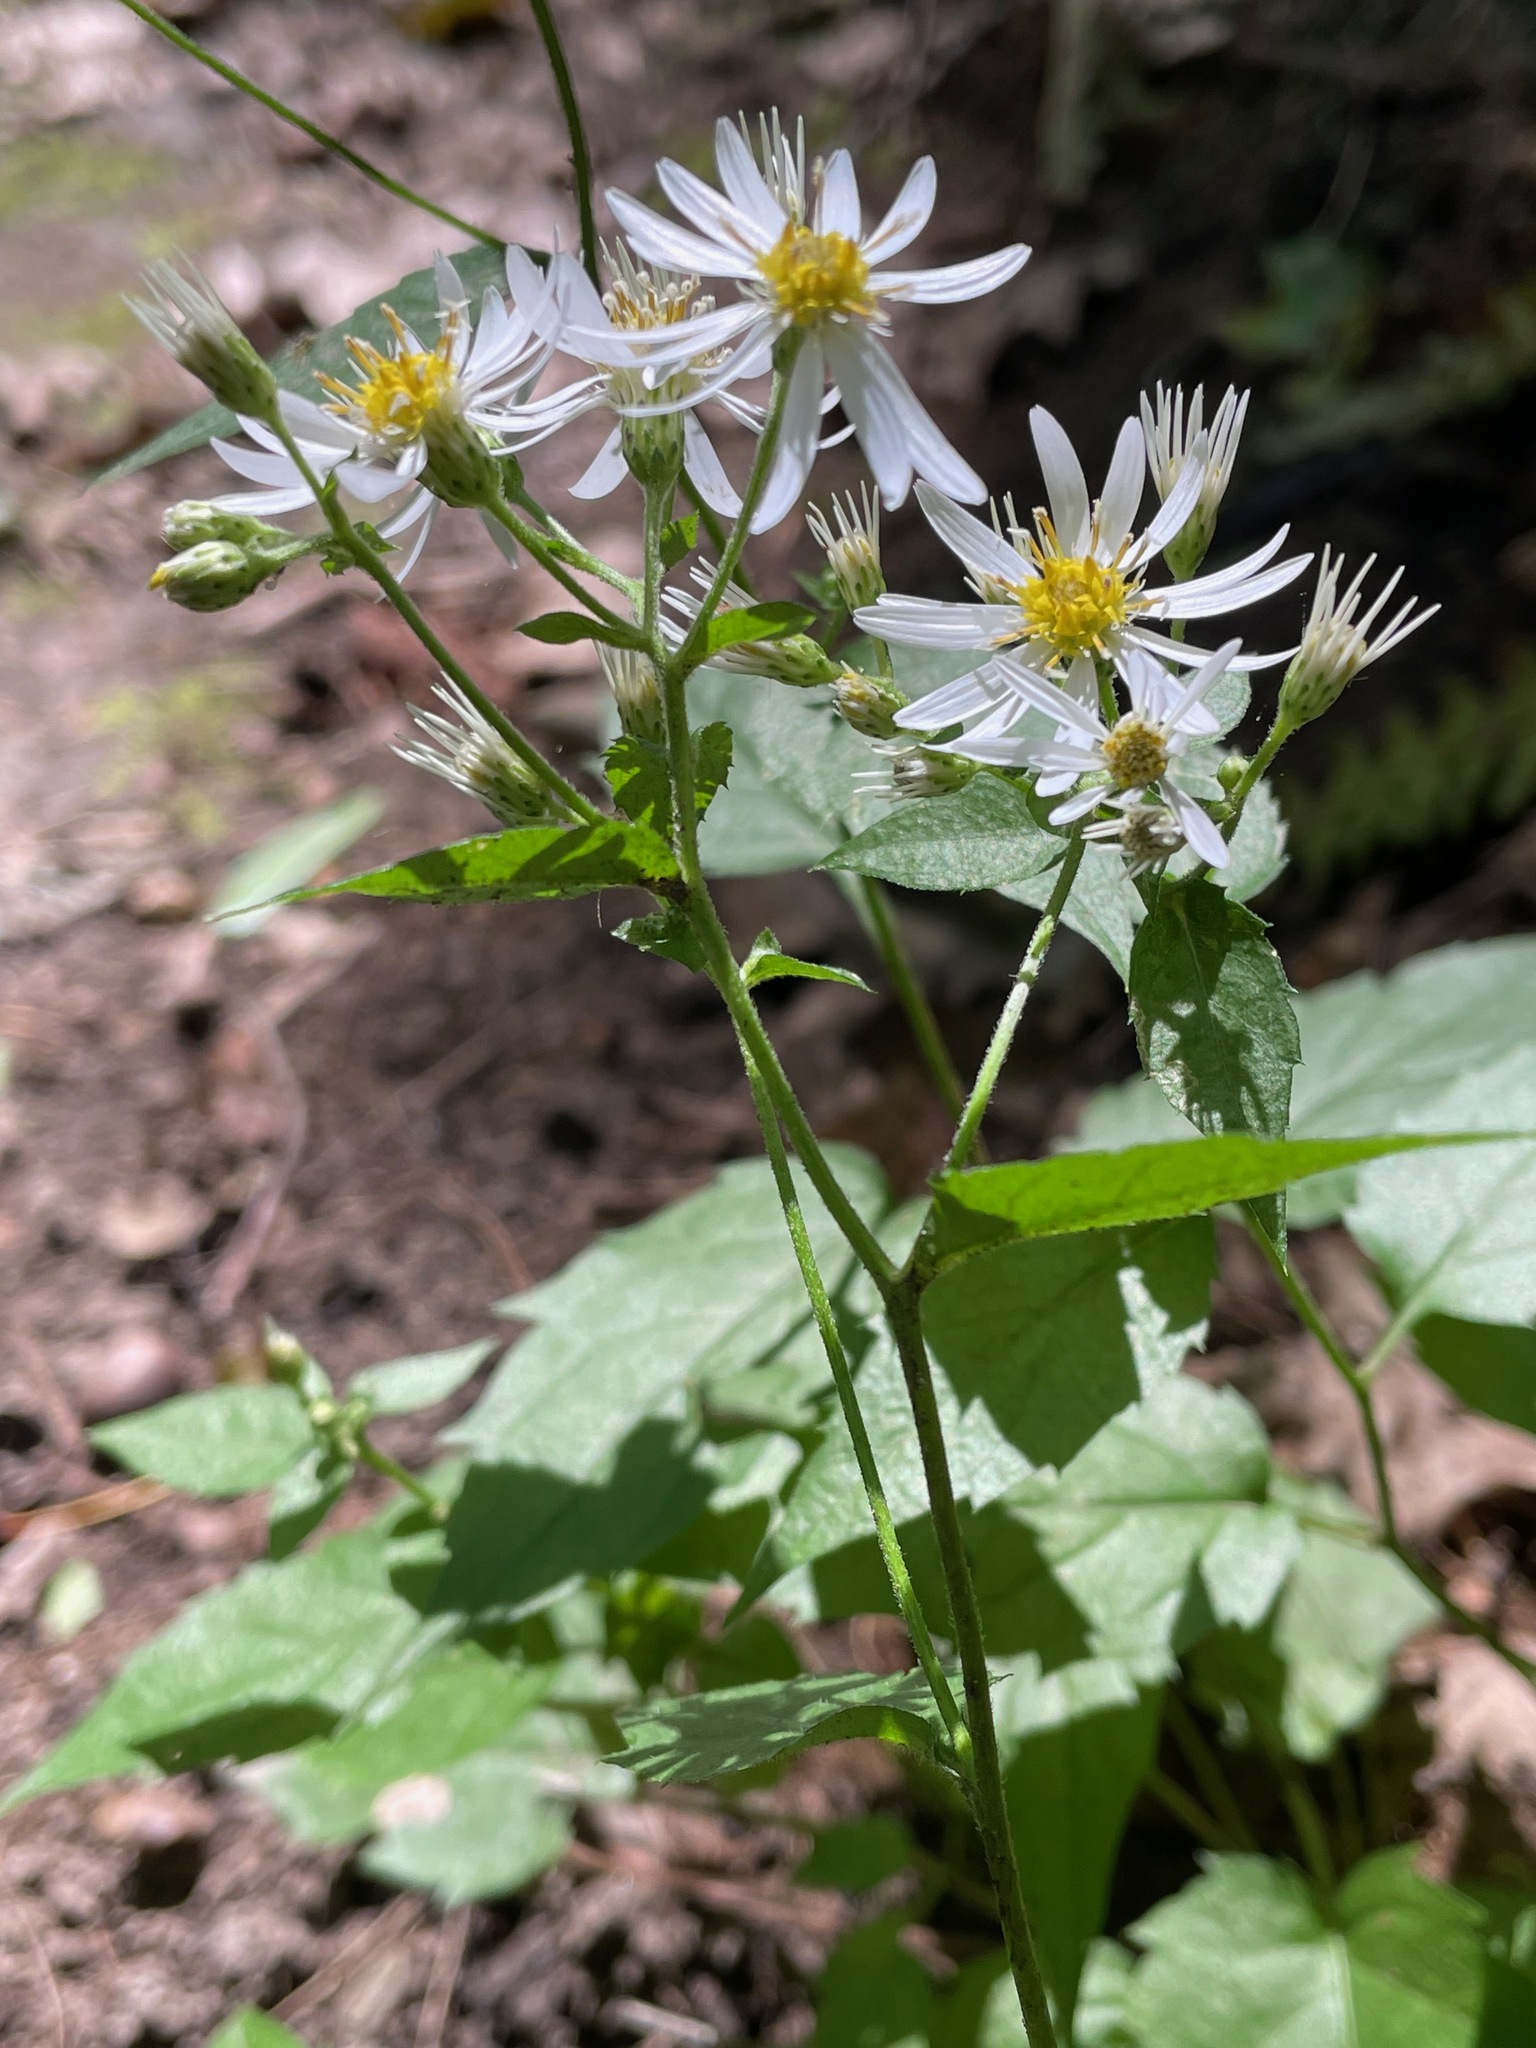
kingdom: Plantae
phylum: Tracheophyta
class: Magnoliopsida
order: Asterales
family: Asteraceae
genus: Eurybia
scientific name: Eurybia divaricata
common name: White wood aster
